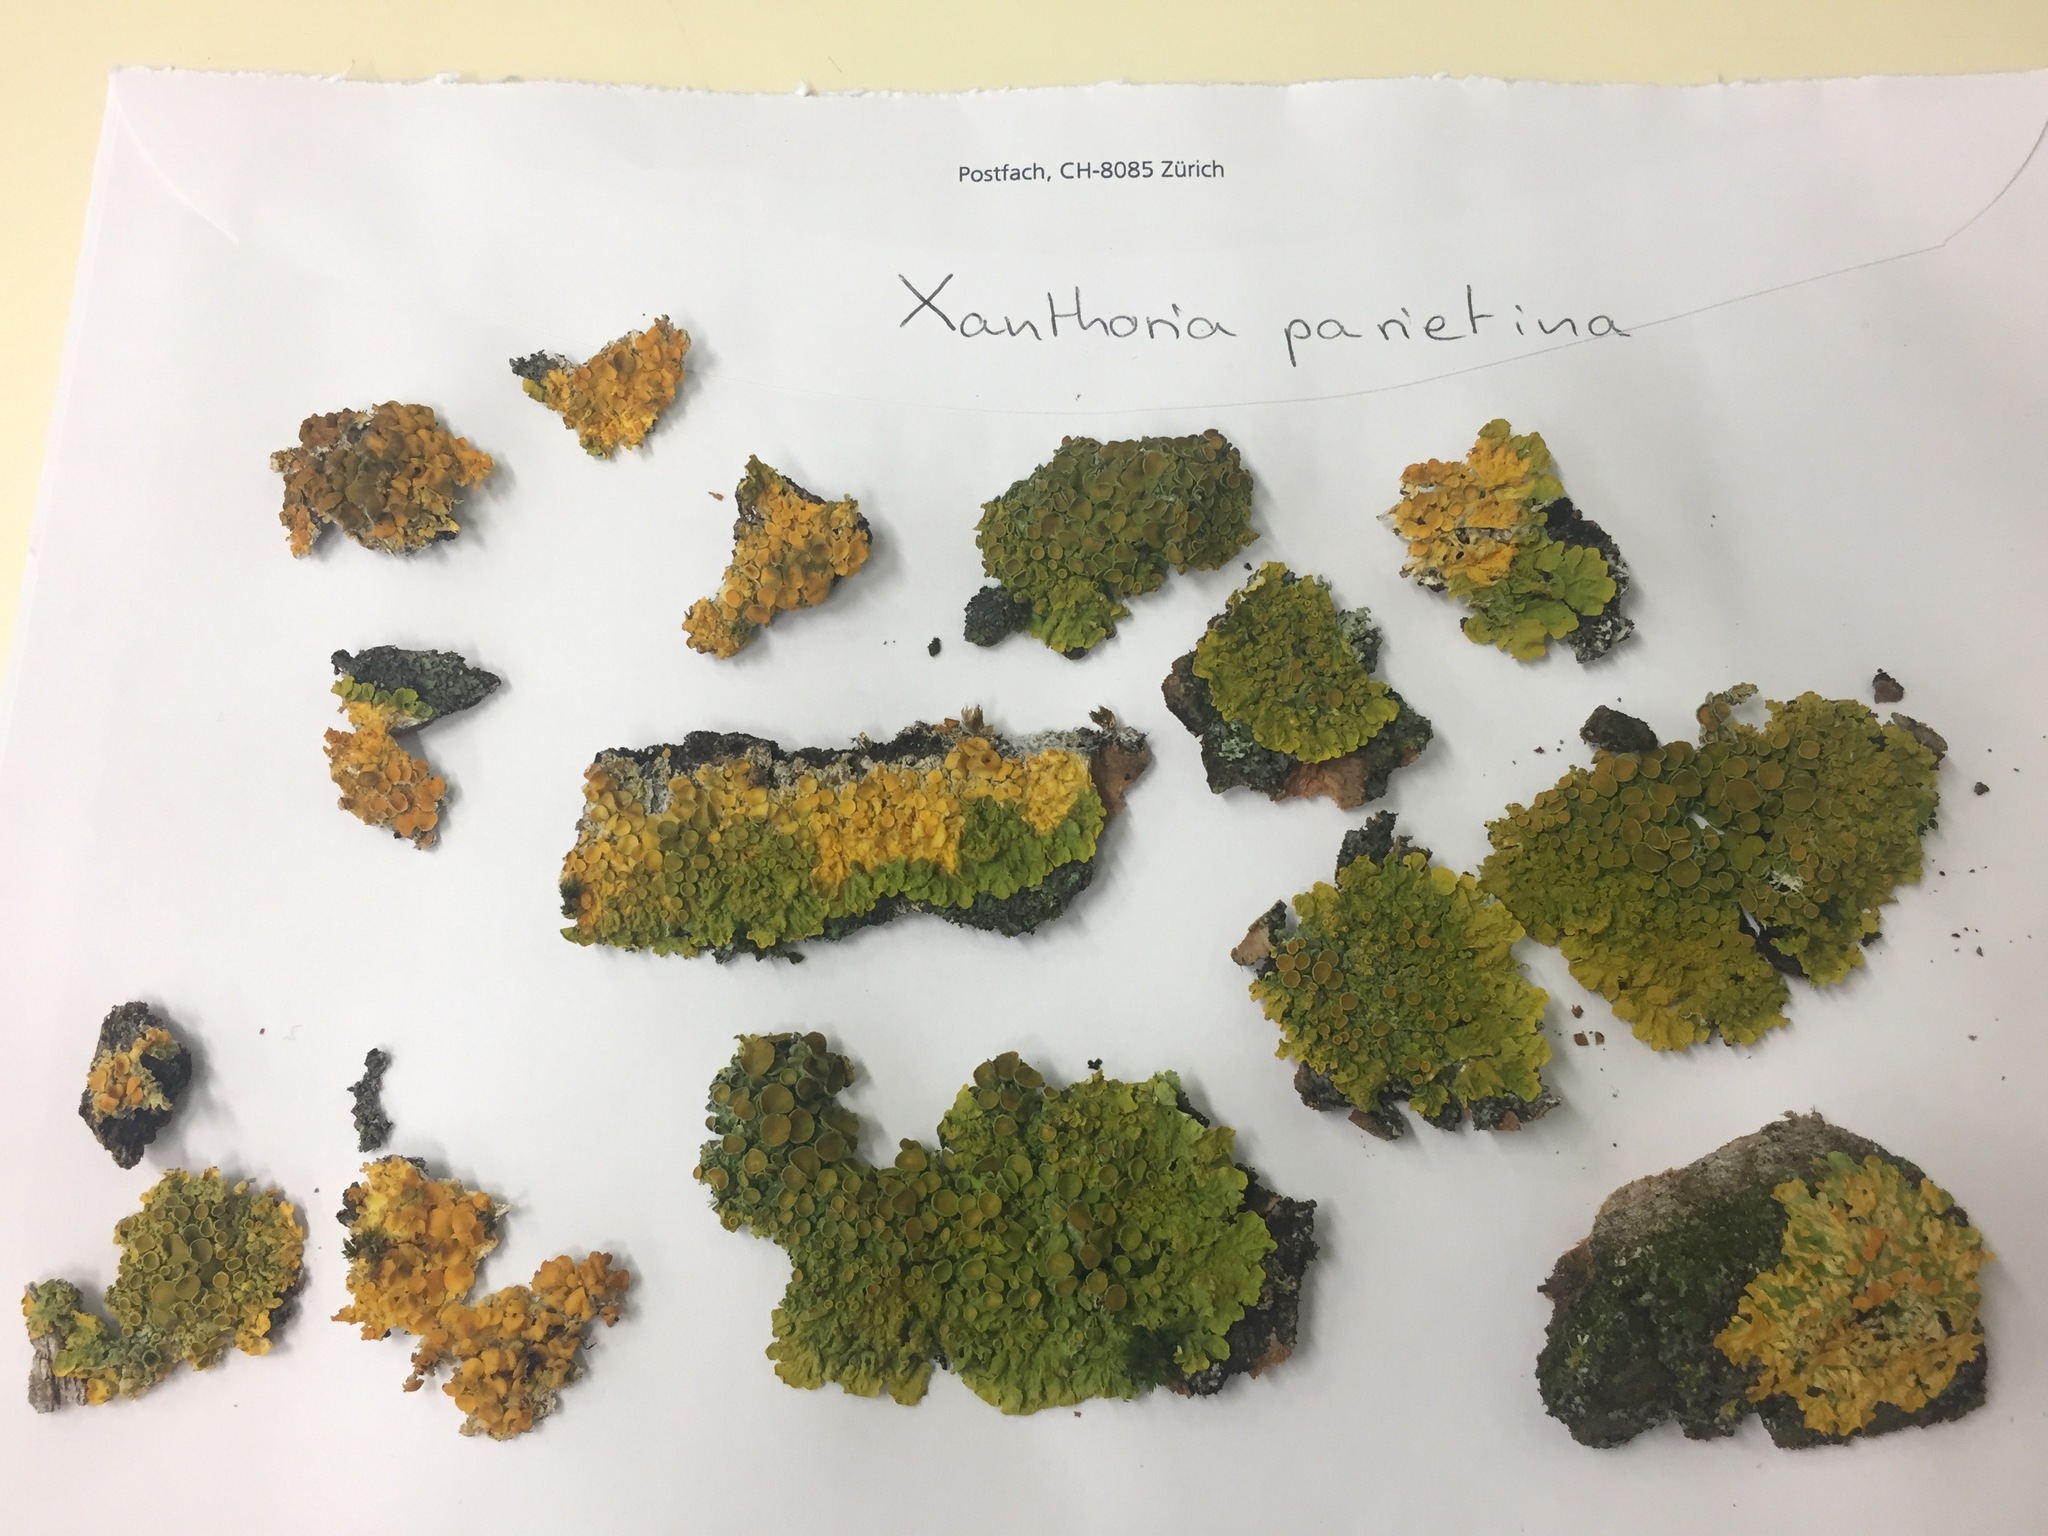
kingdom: Fungi
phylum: Ascomycota
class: Lecanoromycetes
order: Teloschistales
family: Teloschistaceae
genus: Xanthoria
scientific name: Xanthoria parietina
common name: Common orange lichen
